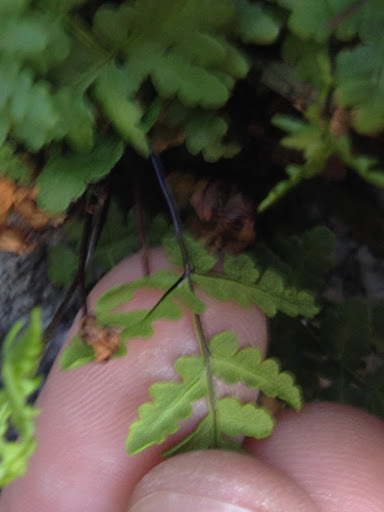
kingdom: Plantae
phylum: Tracheophyta
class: Polypodiopsida
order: Polypodiales
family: Pteridaceae
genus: Pentagramma
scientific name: Pentagramma triangularis
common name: Gold fern
